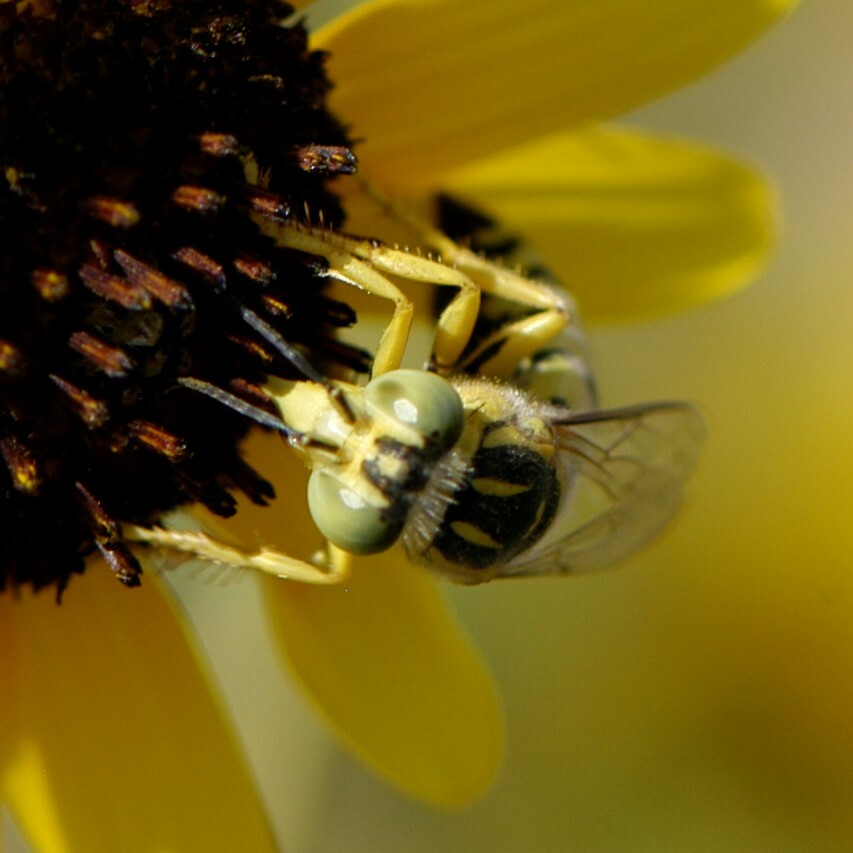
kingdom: Animalia
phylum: Arthropoda
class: Insecta
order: Hymenoptera
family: Crabronidae
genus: Bembix
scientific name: Bembix occidentalis
